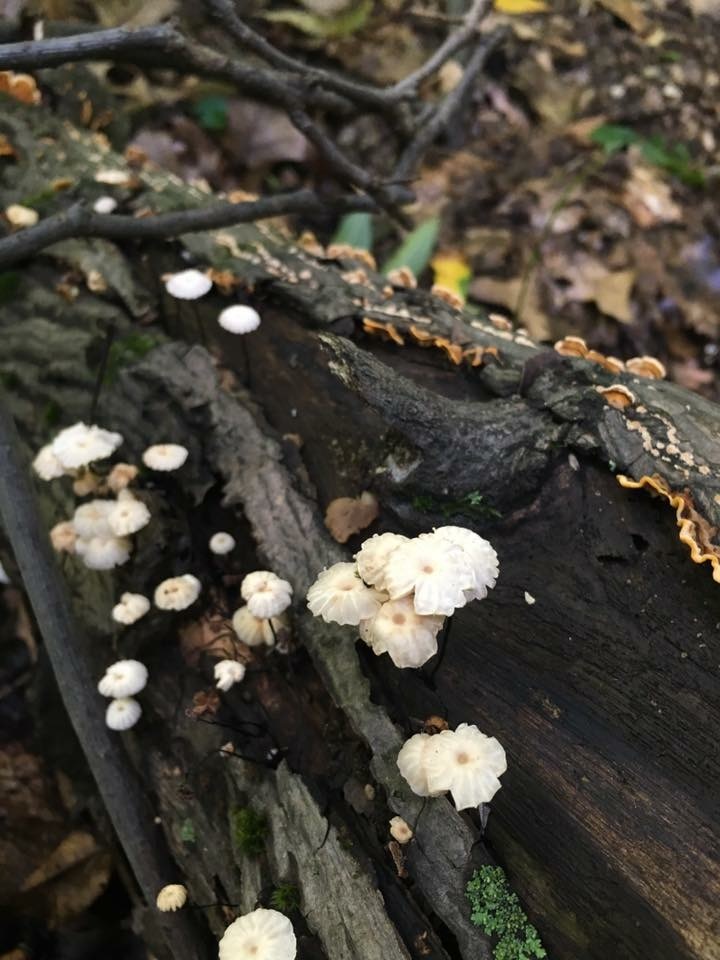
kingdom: Fungi
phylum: Basidiomycota
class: Agaricomycetes
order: Agaricales
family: Marasmiaceae
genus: Marasmius
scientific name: Marasmius rotula
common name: Collared parachute
